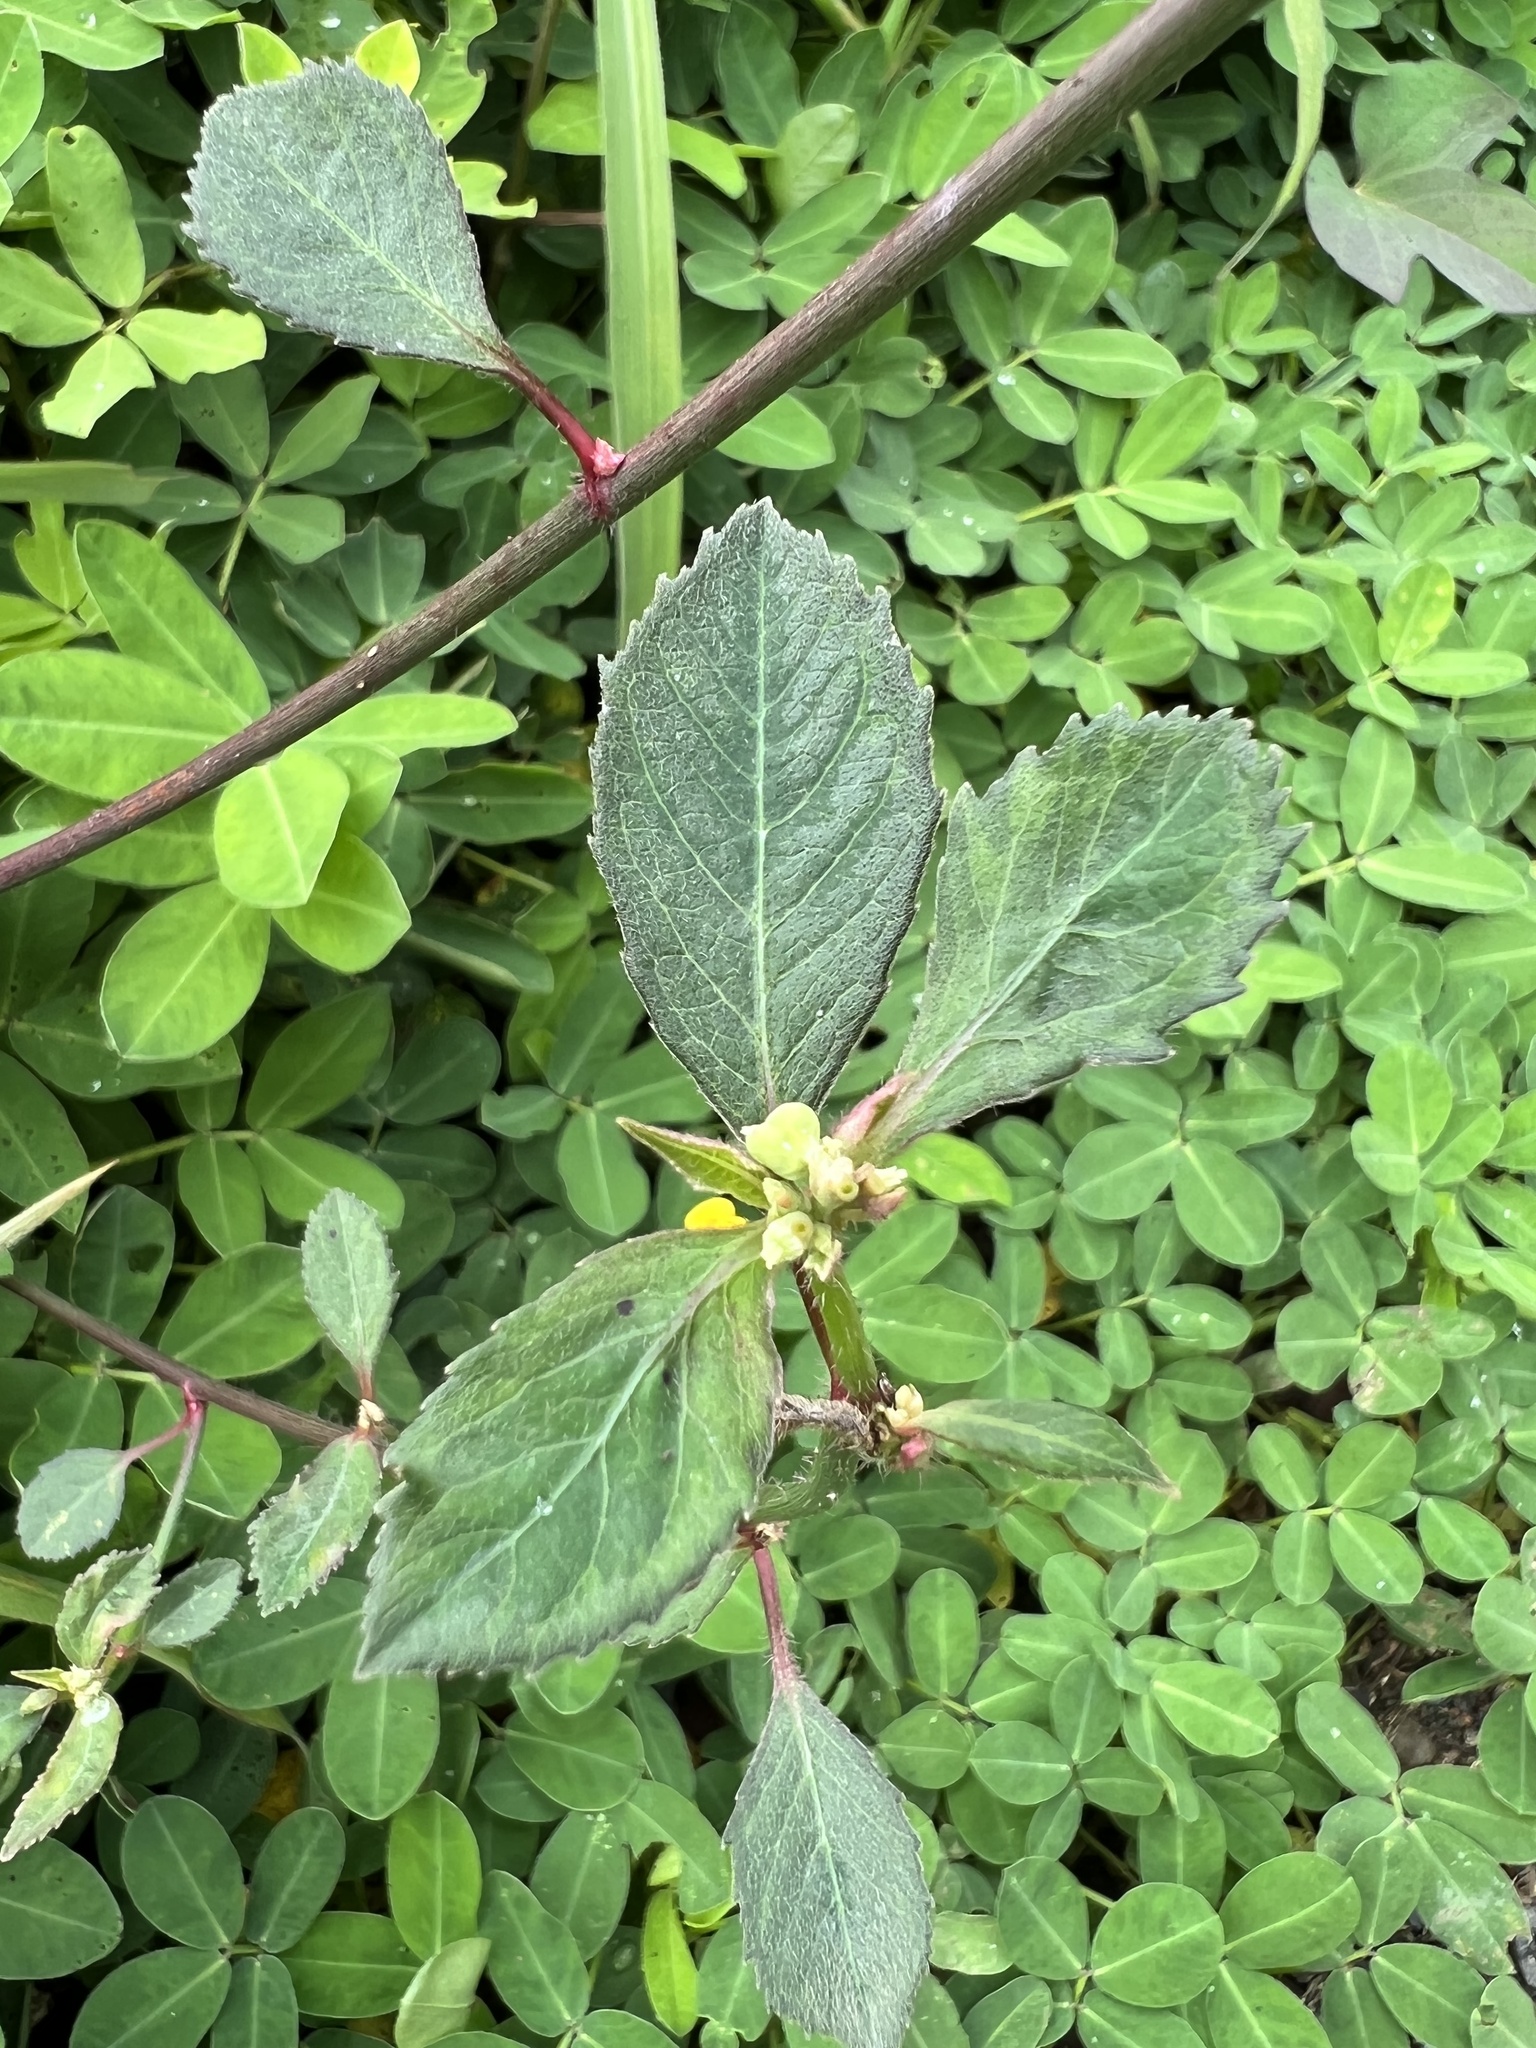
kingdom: Plantae
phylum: Tracheophyta
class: Magnoliopsida
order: Malpighiales
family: Euphorbiaceae
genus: Euphorbia
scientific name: Euphorbia heterophylla
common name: Mexican fireplant
